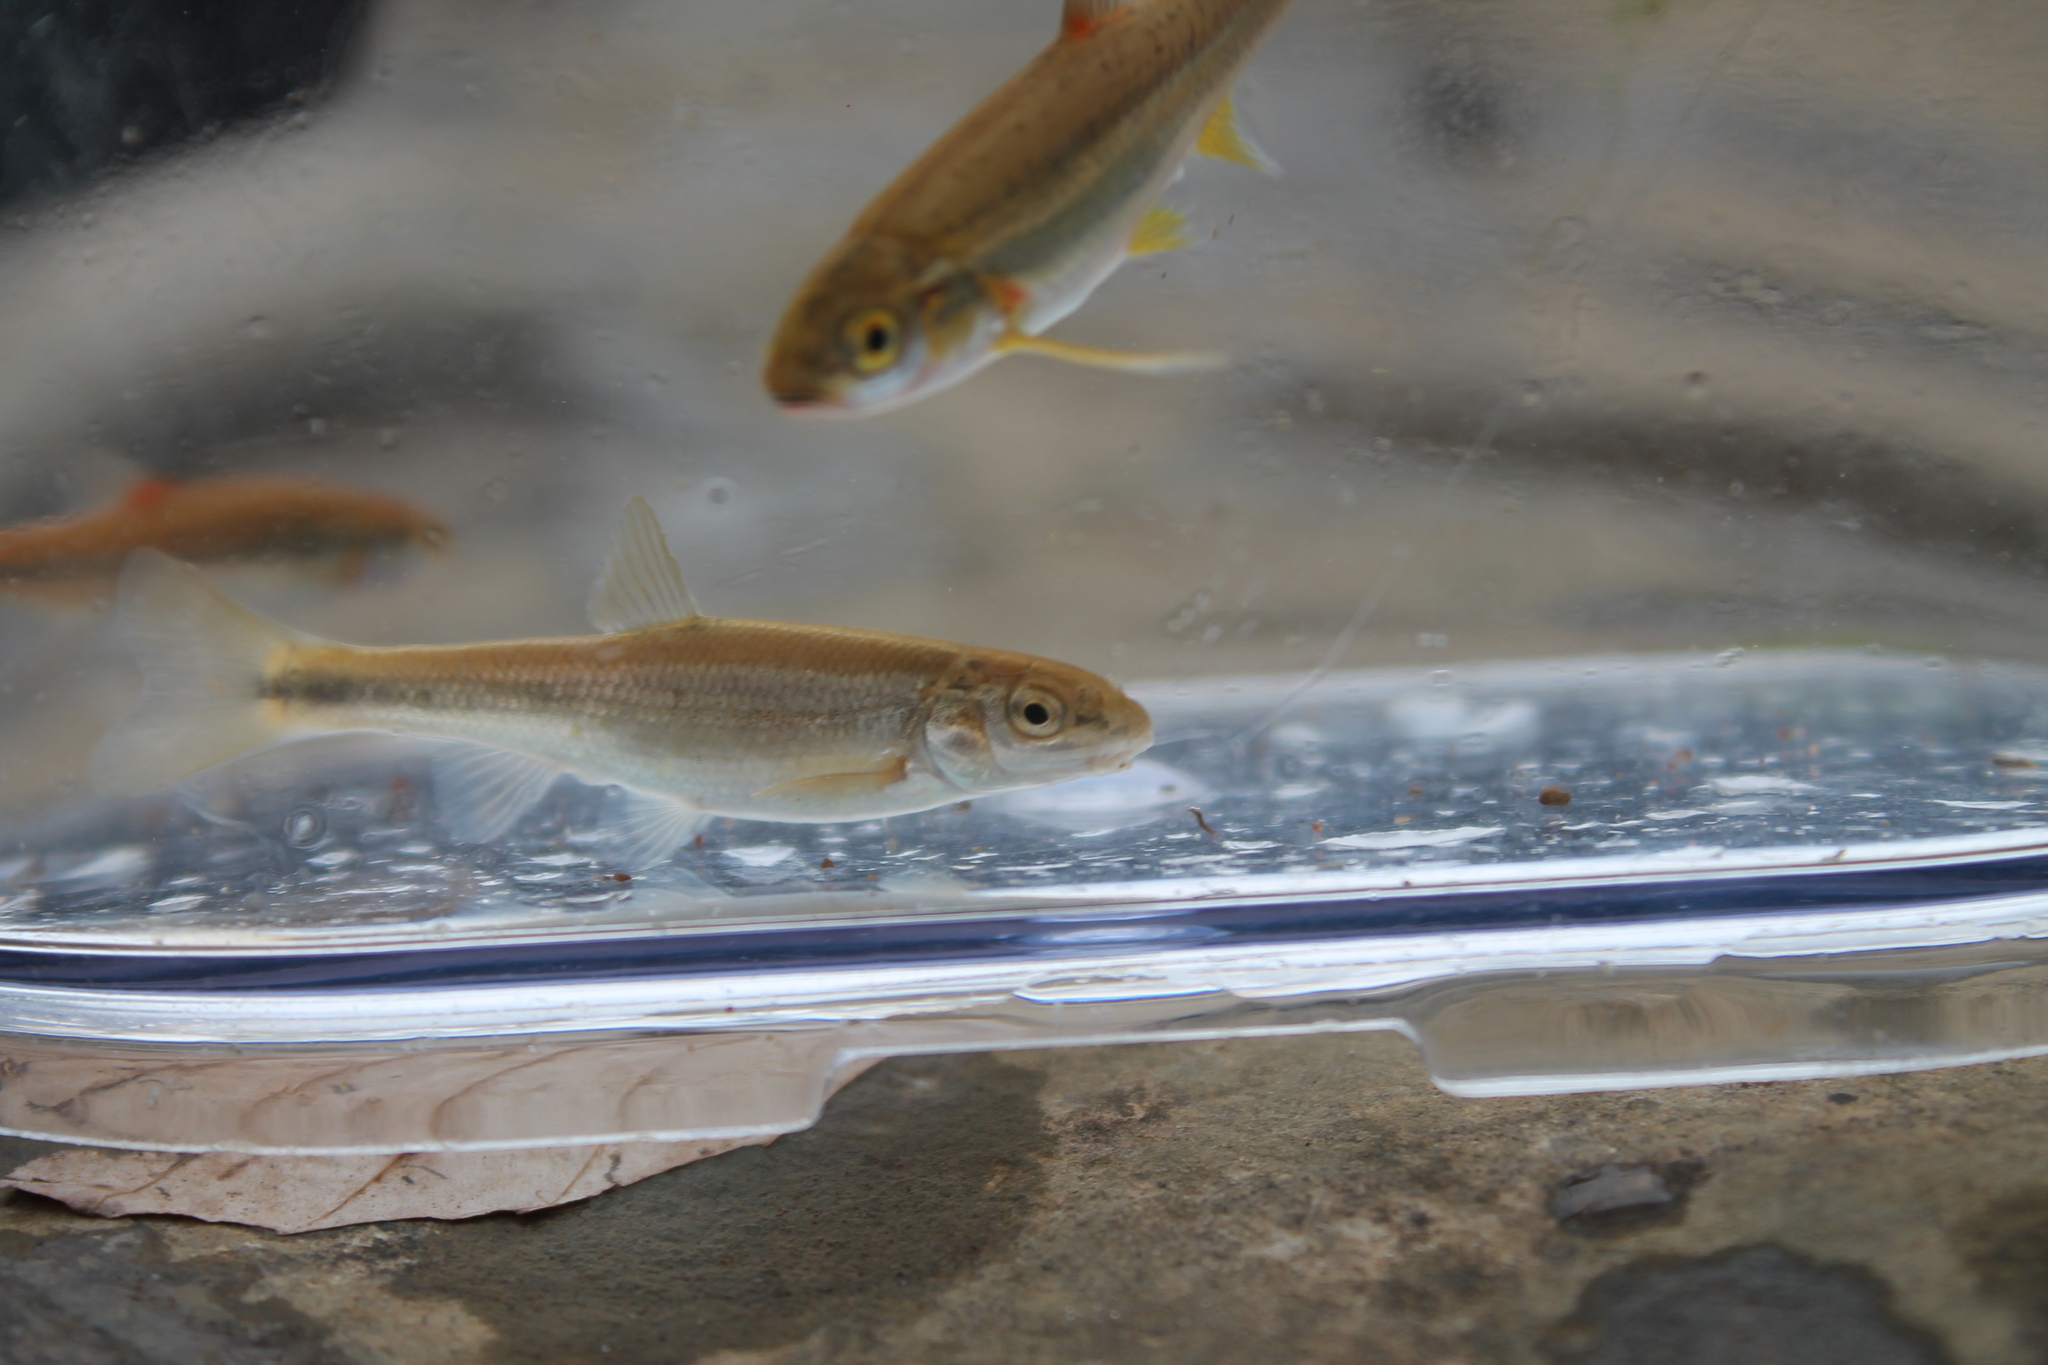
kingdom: Animalia
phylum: Chordata
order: Cypriniformes
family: Cyprinidae
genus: Campostoma
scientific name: Campostoma oligolepis
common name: Largescale stoneroller
